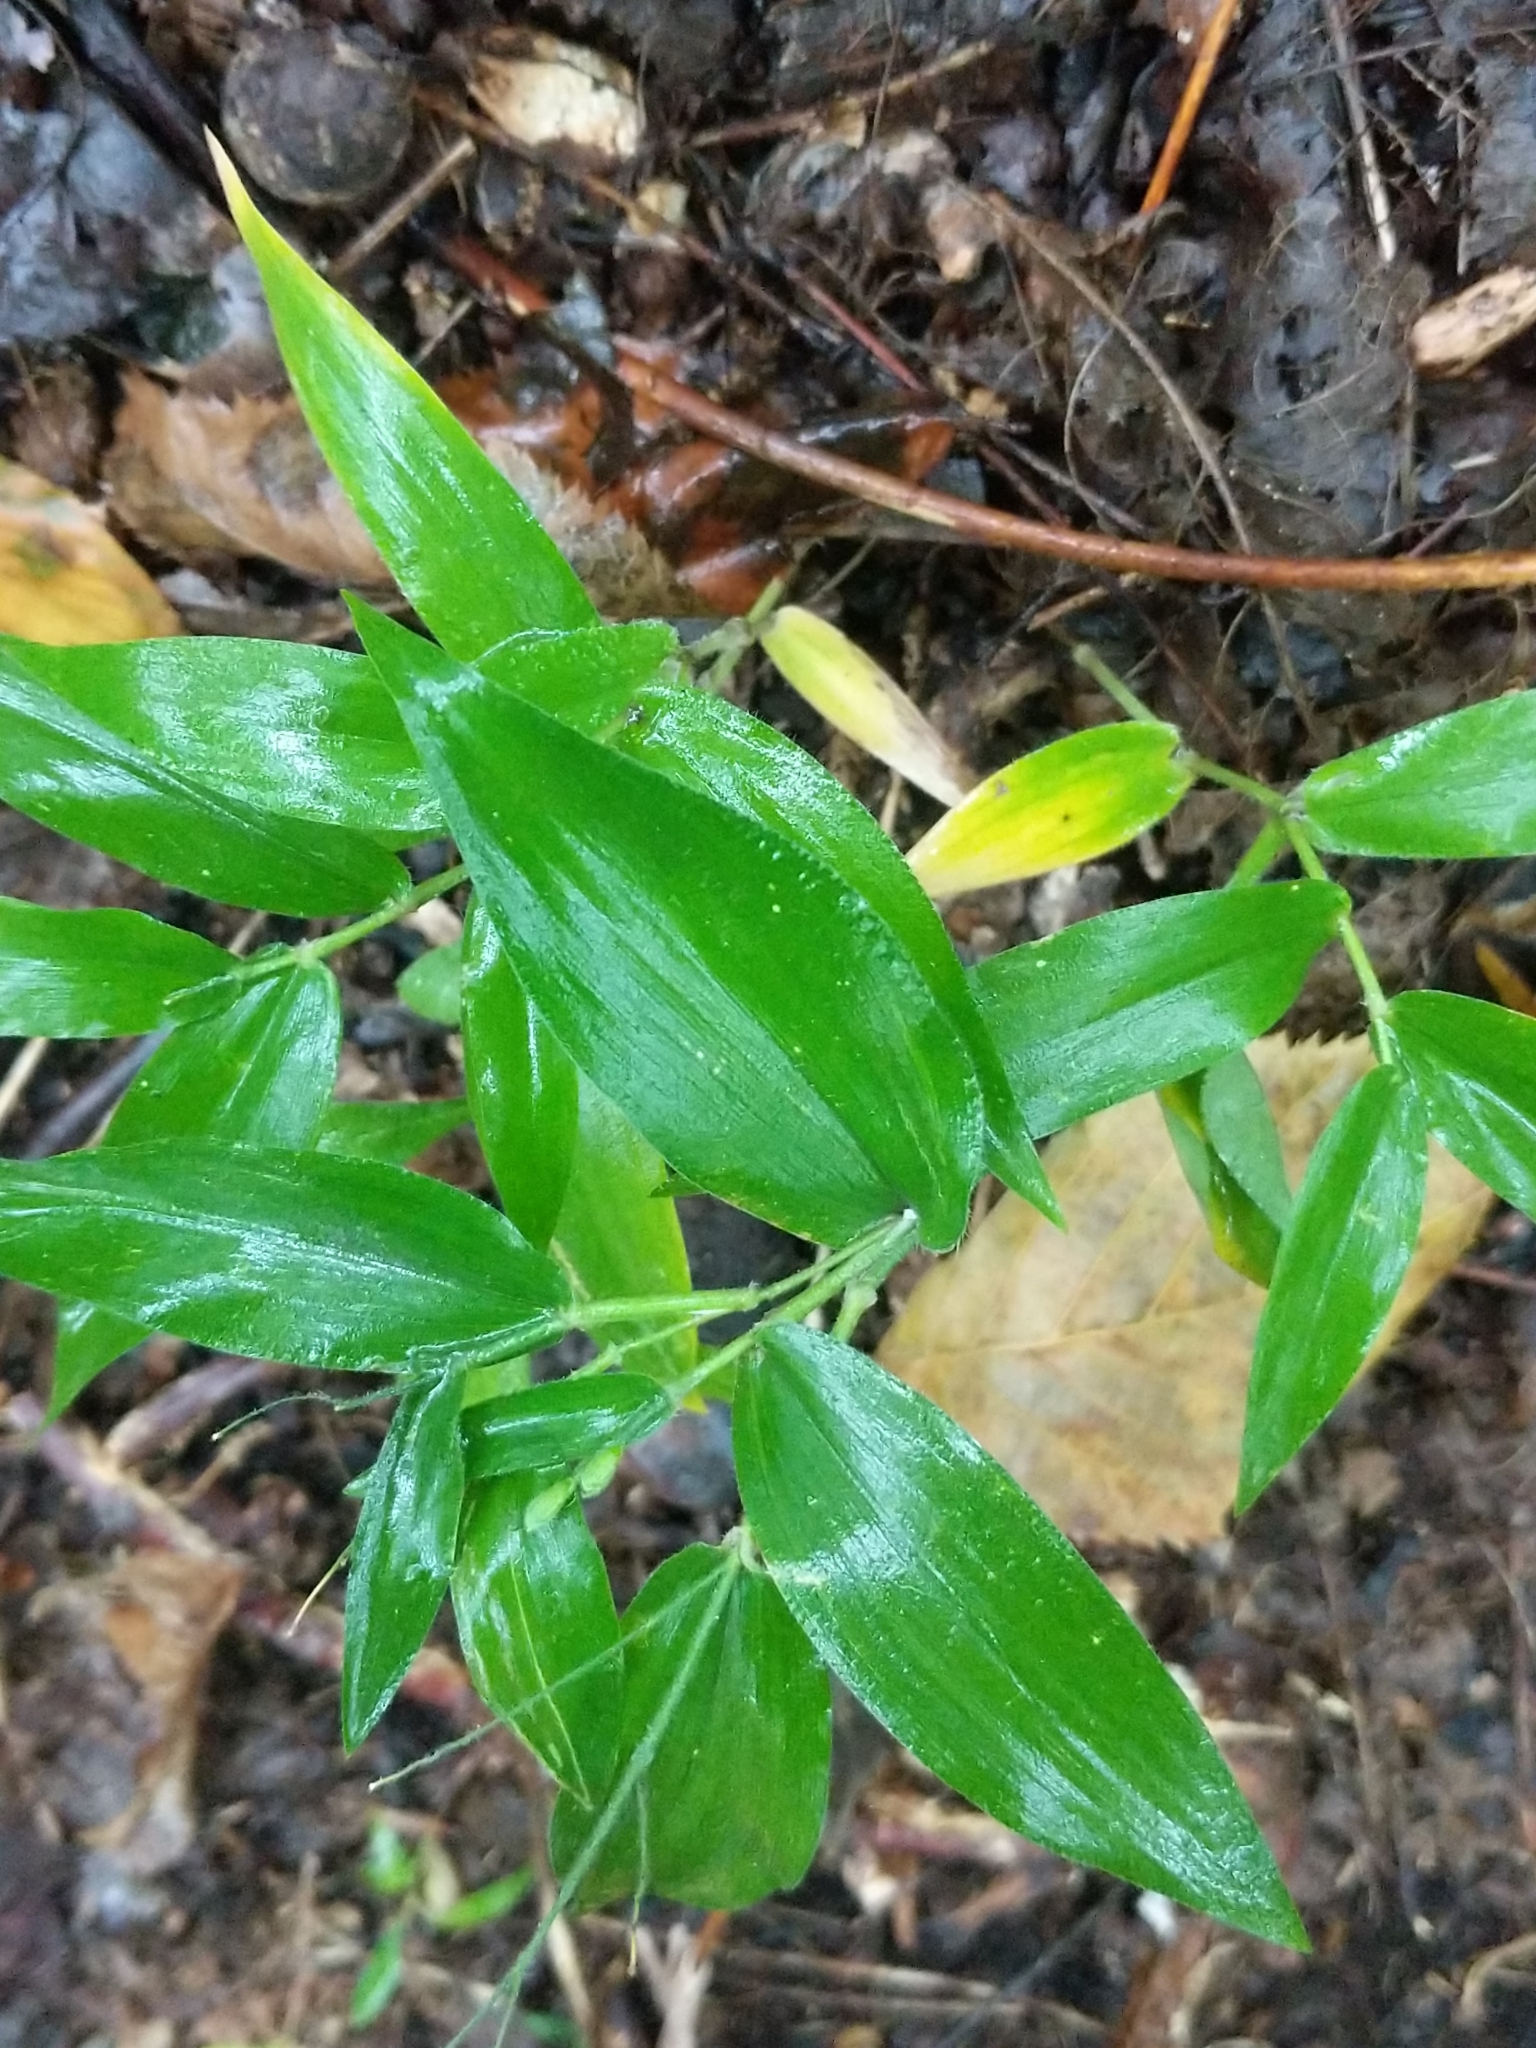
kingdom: Plantae
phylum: Tracheophyta
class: Liliopsida
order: Poales
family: Poaceae
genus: Dichanthelium
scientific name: Dichanthelium boscii
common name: Bosc's panic grass
